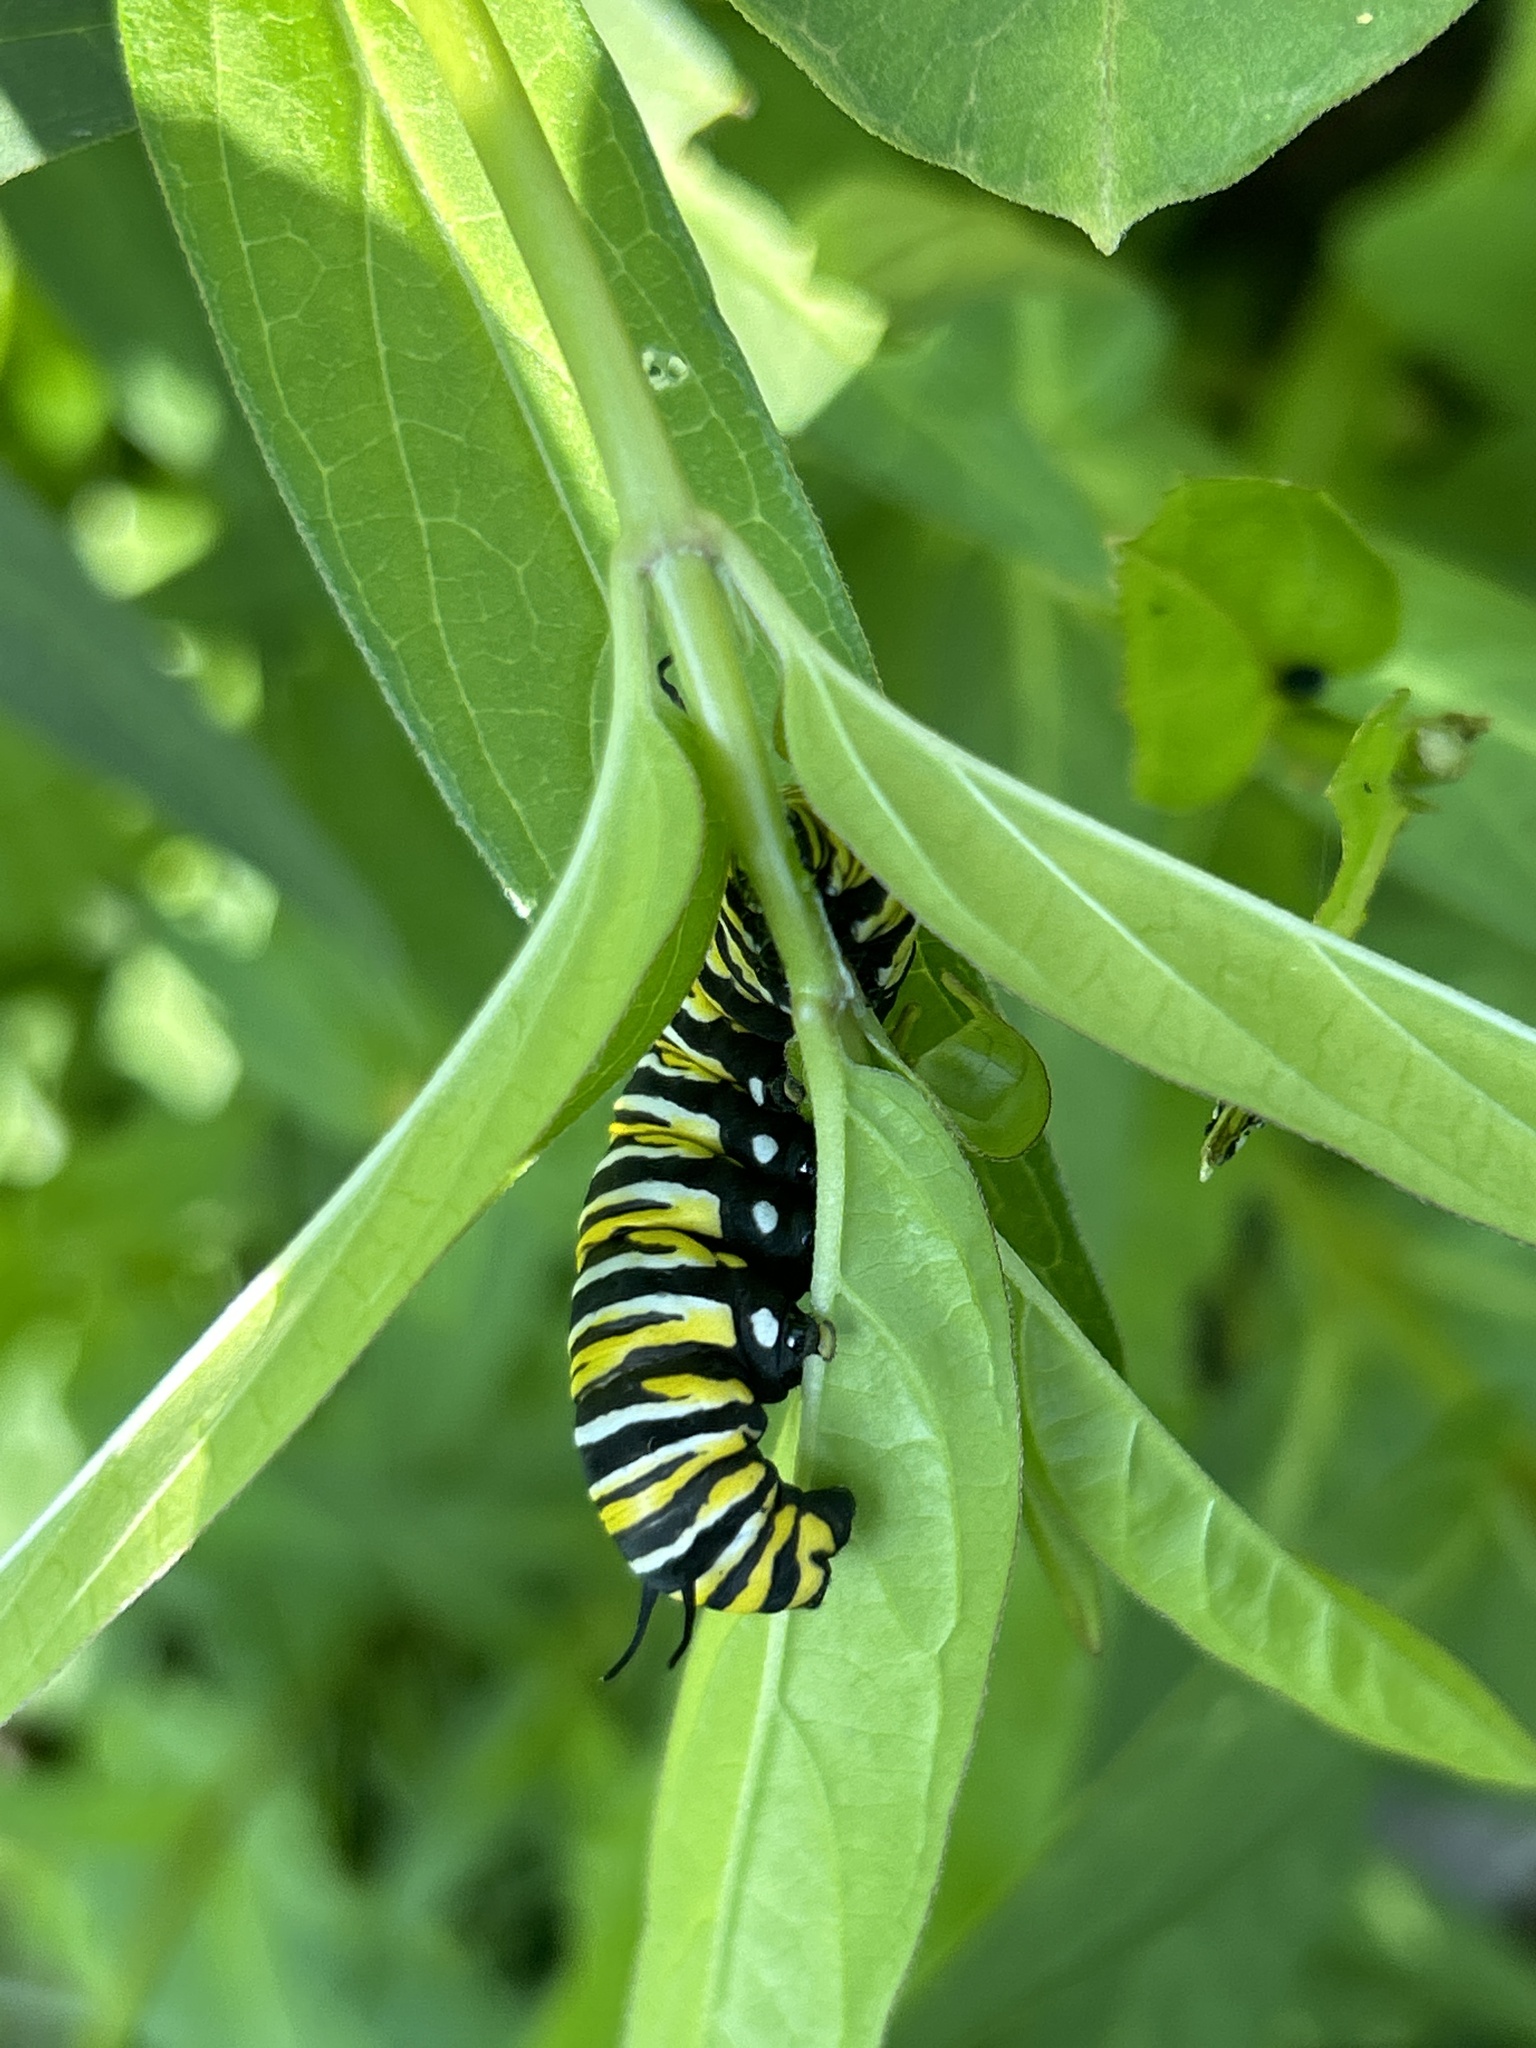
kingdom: Animalia
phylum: Arthropoda
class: Insecta
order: Lepidoptera
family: Nymphalidae
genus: Danaus
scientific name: Danaus plexippus
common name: Monarch
